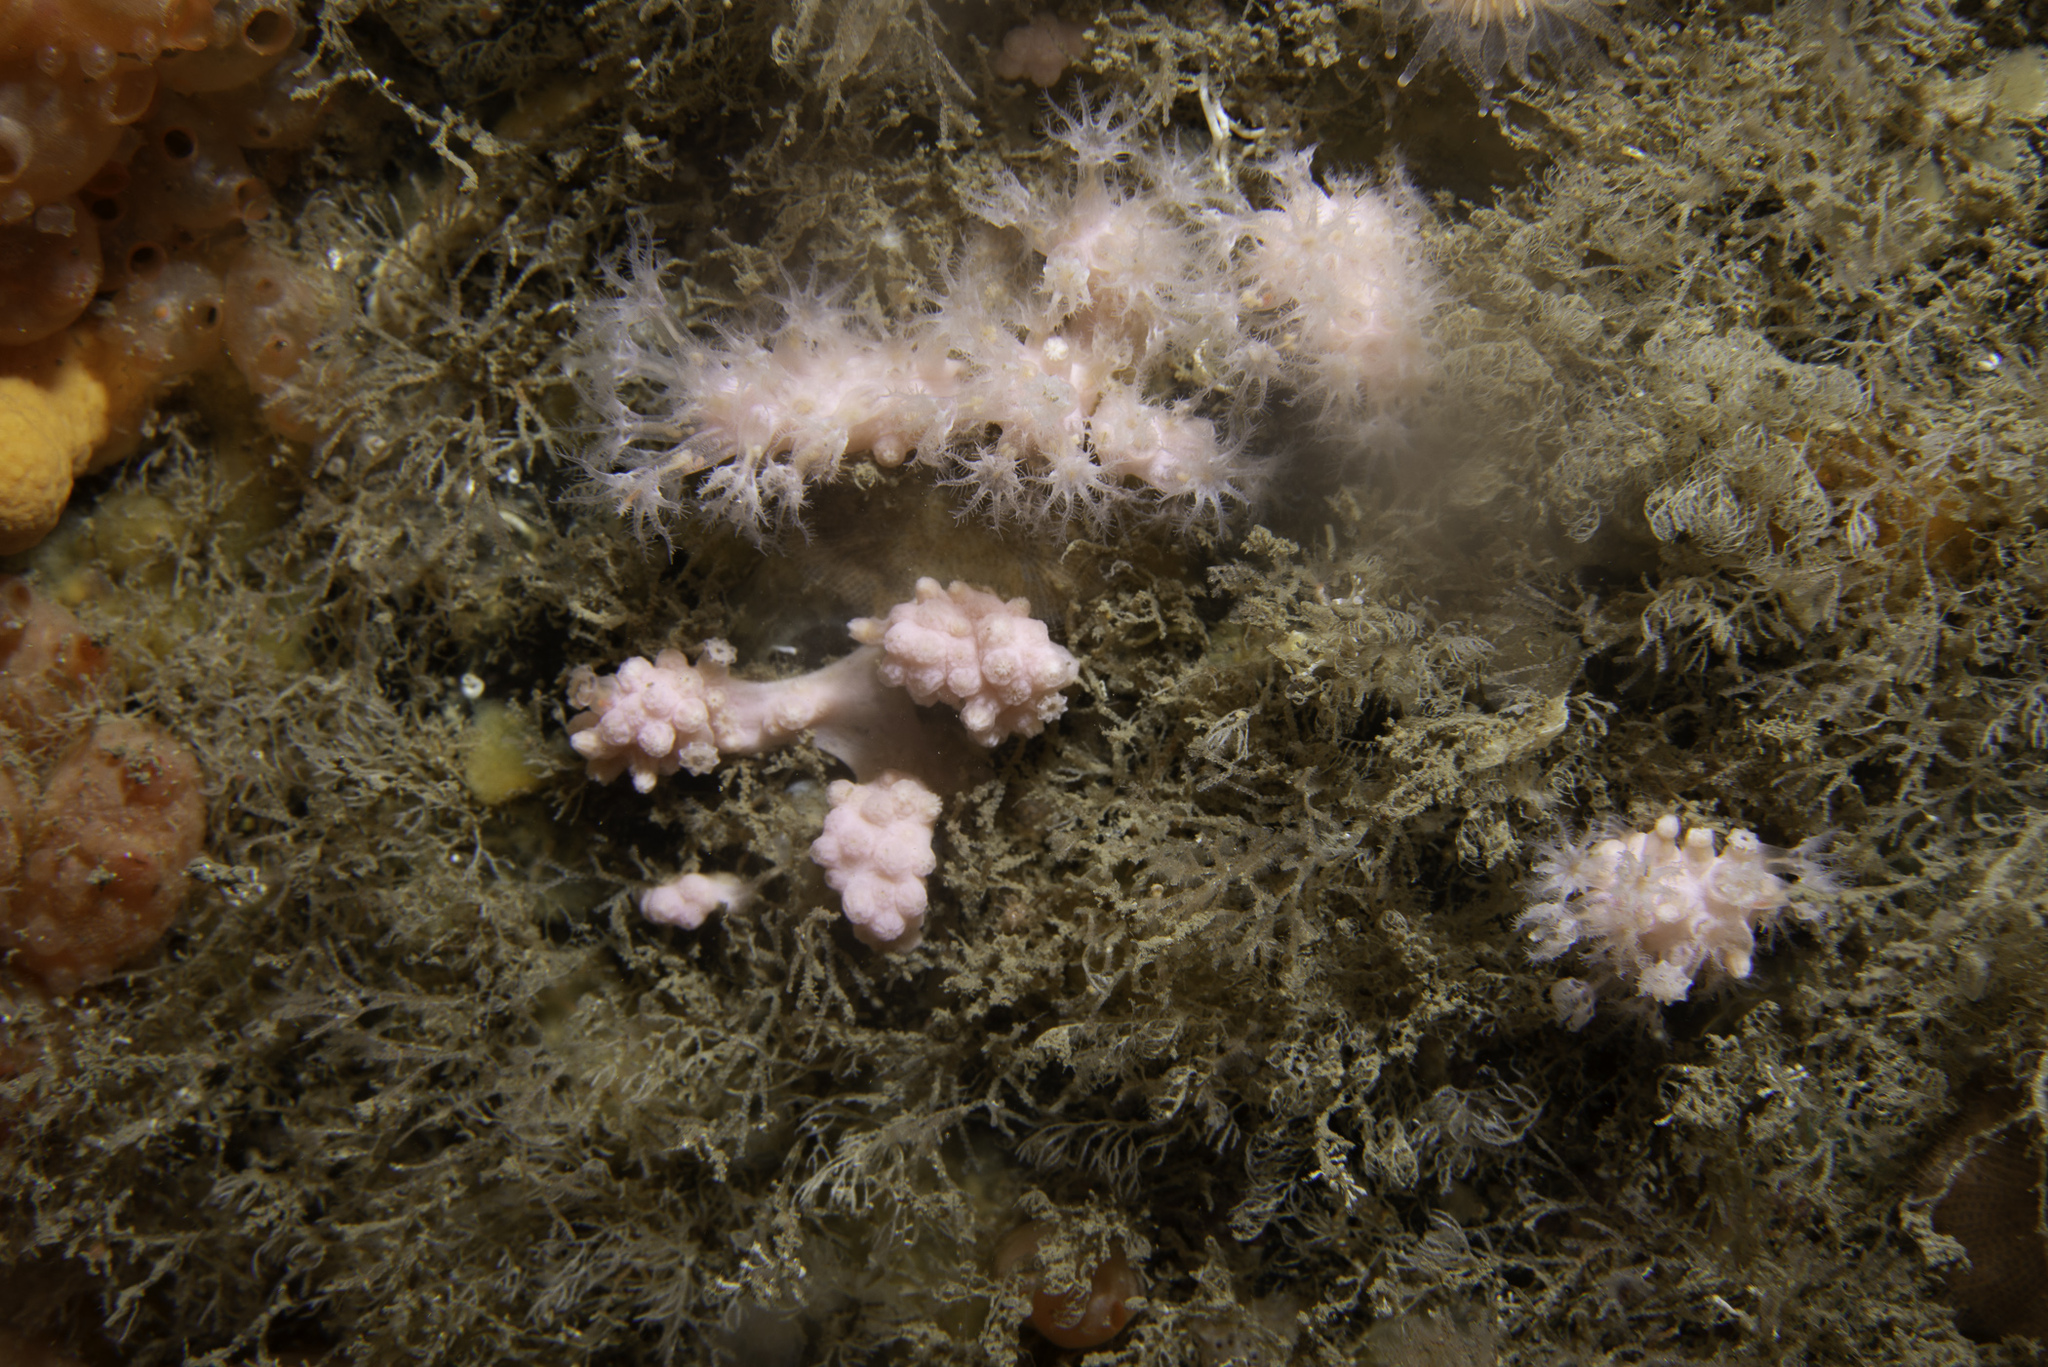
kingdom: Animalia
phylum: Cnidaria
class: Anthozoa
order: Malacalcyonacea
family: Alcyoniidae
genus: Alcyonium
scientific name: Alcyonium hibernicum
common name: Pink sea fingers
